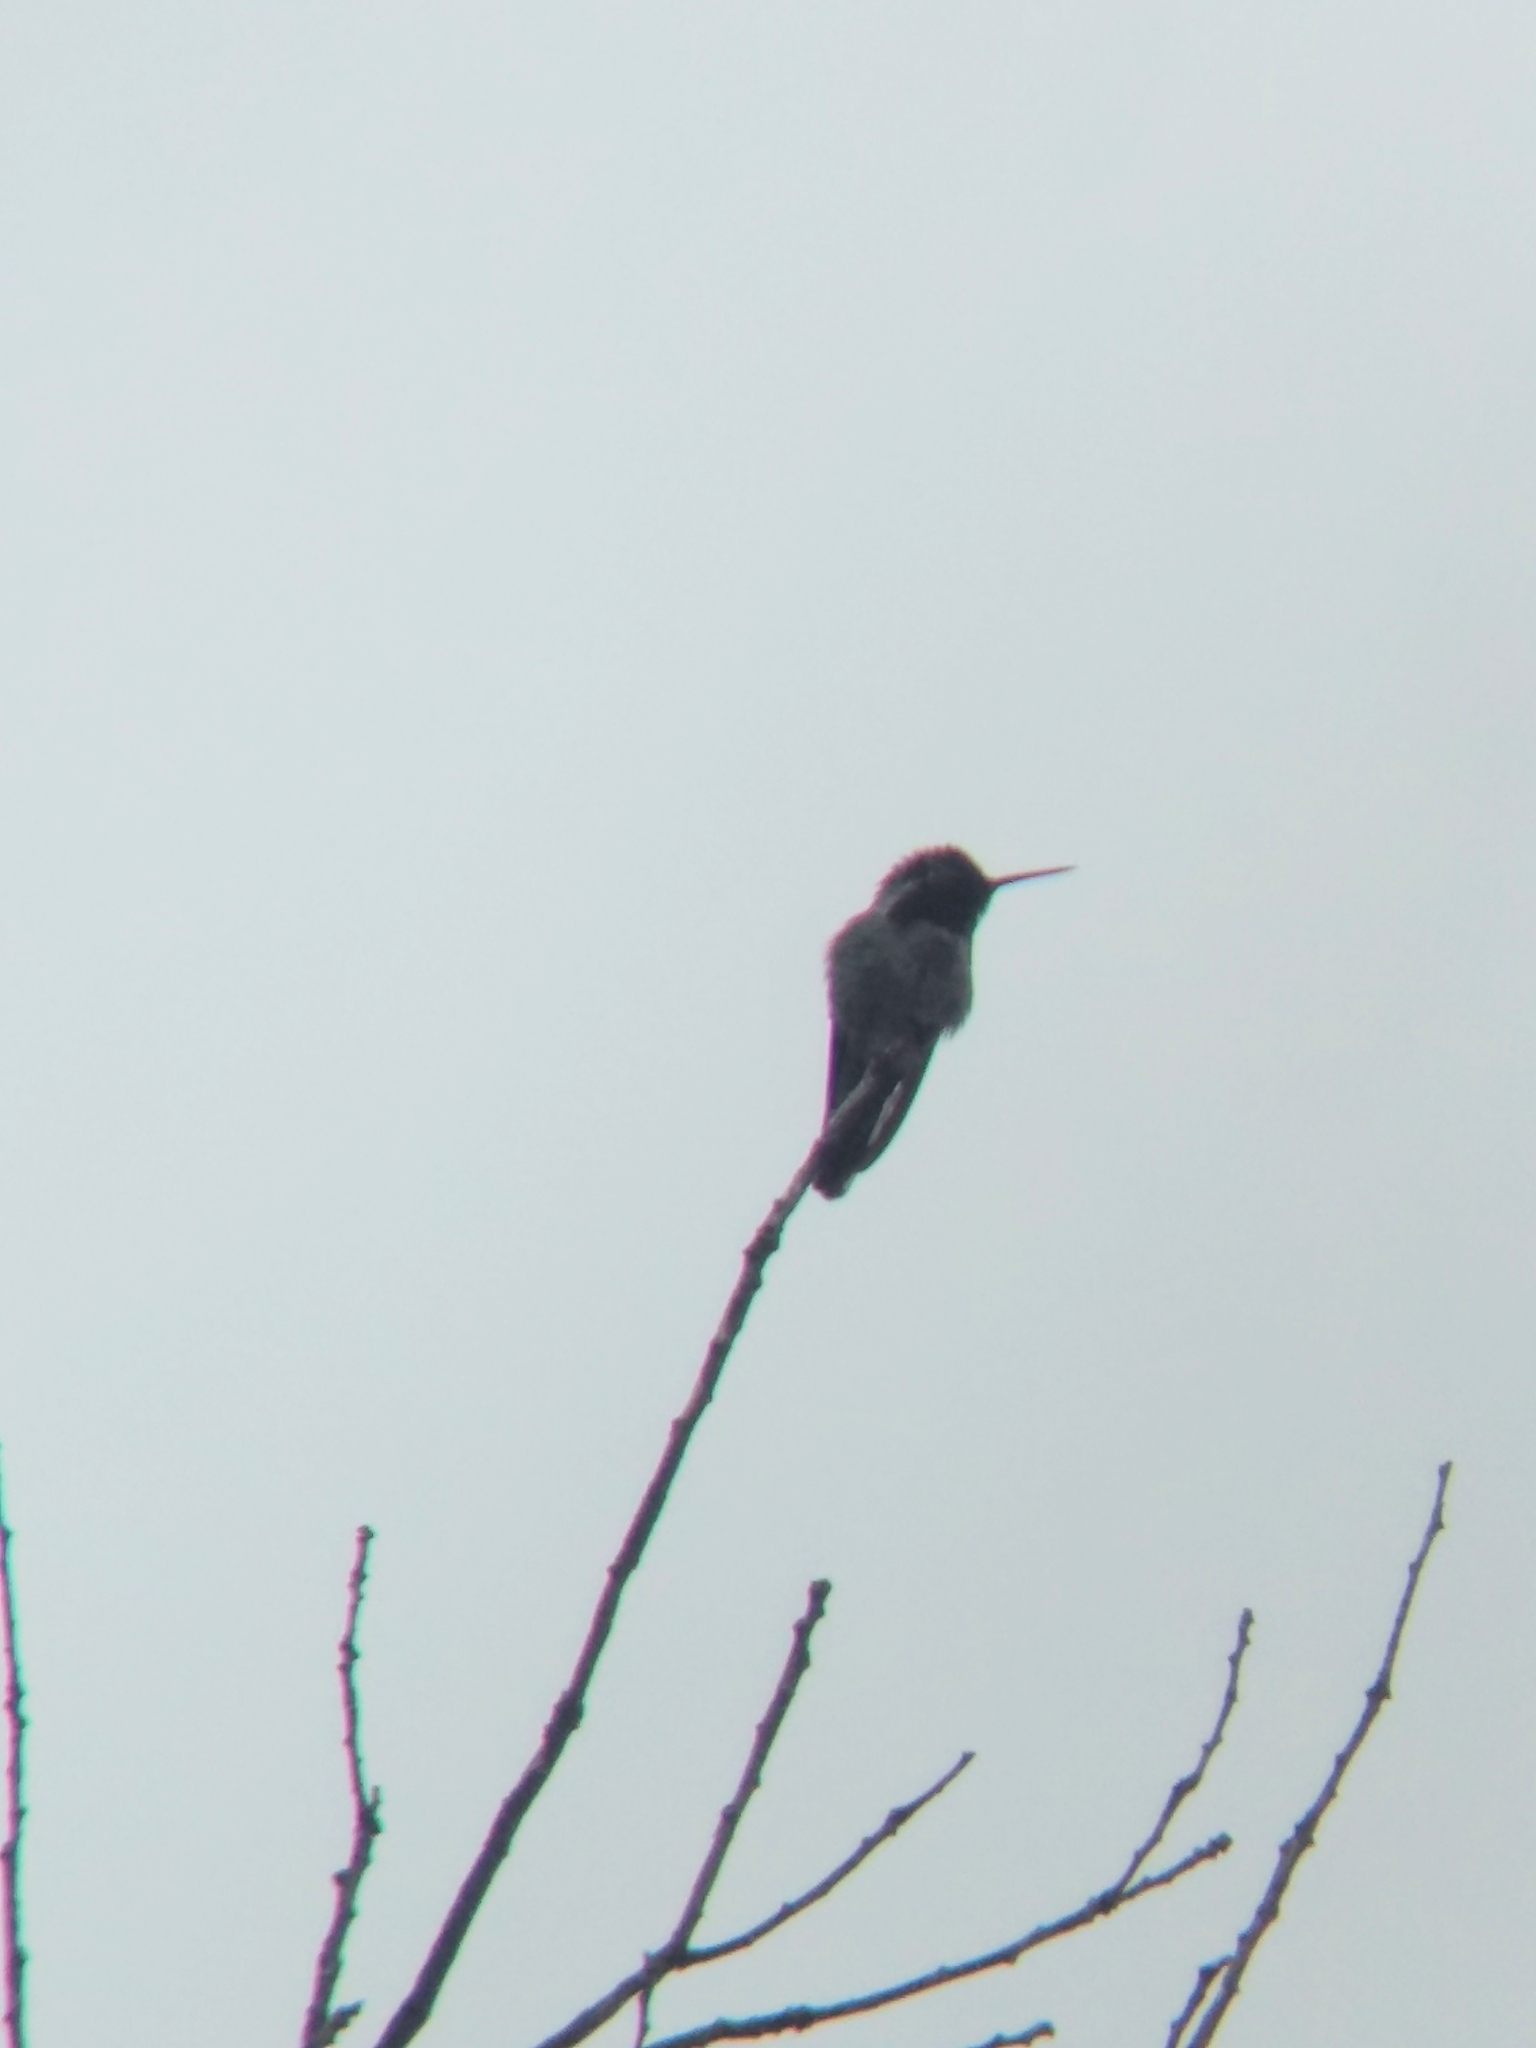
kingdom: Animalia
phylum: Chordata
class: Aves
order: Apodiformes
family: Trochilidae
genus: Calypte
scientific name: Calypte anna
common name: Anna's hummingbird
